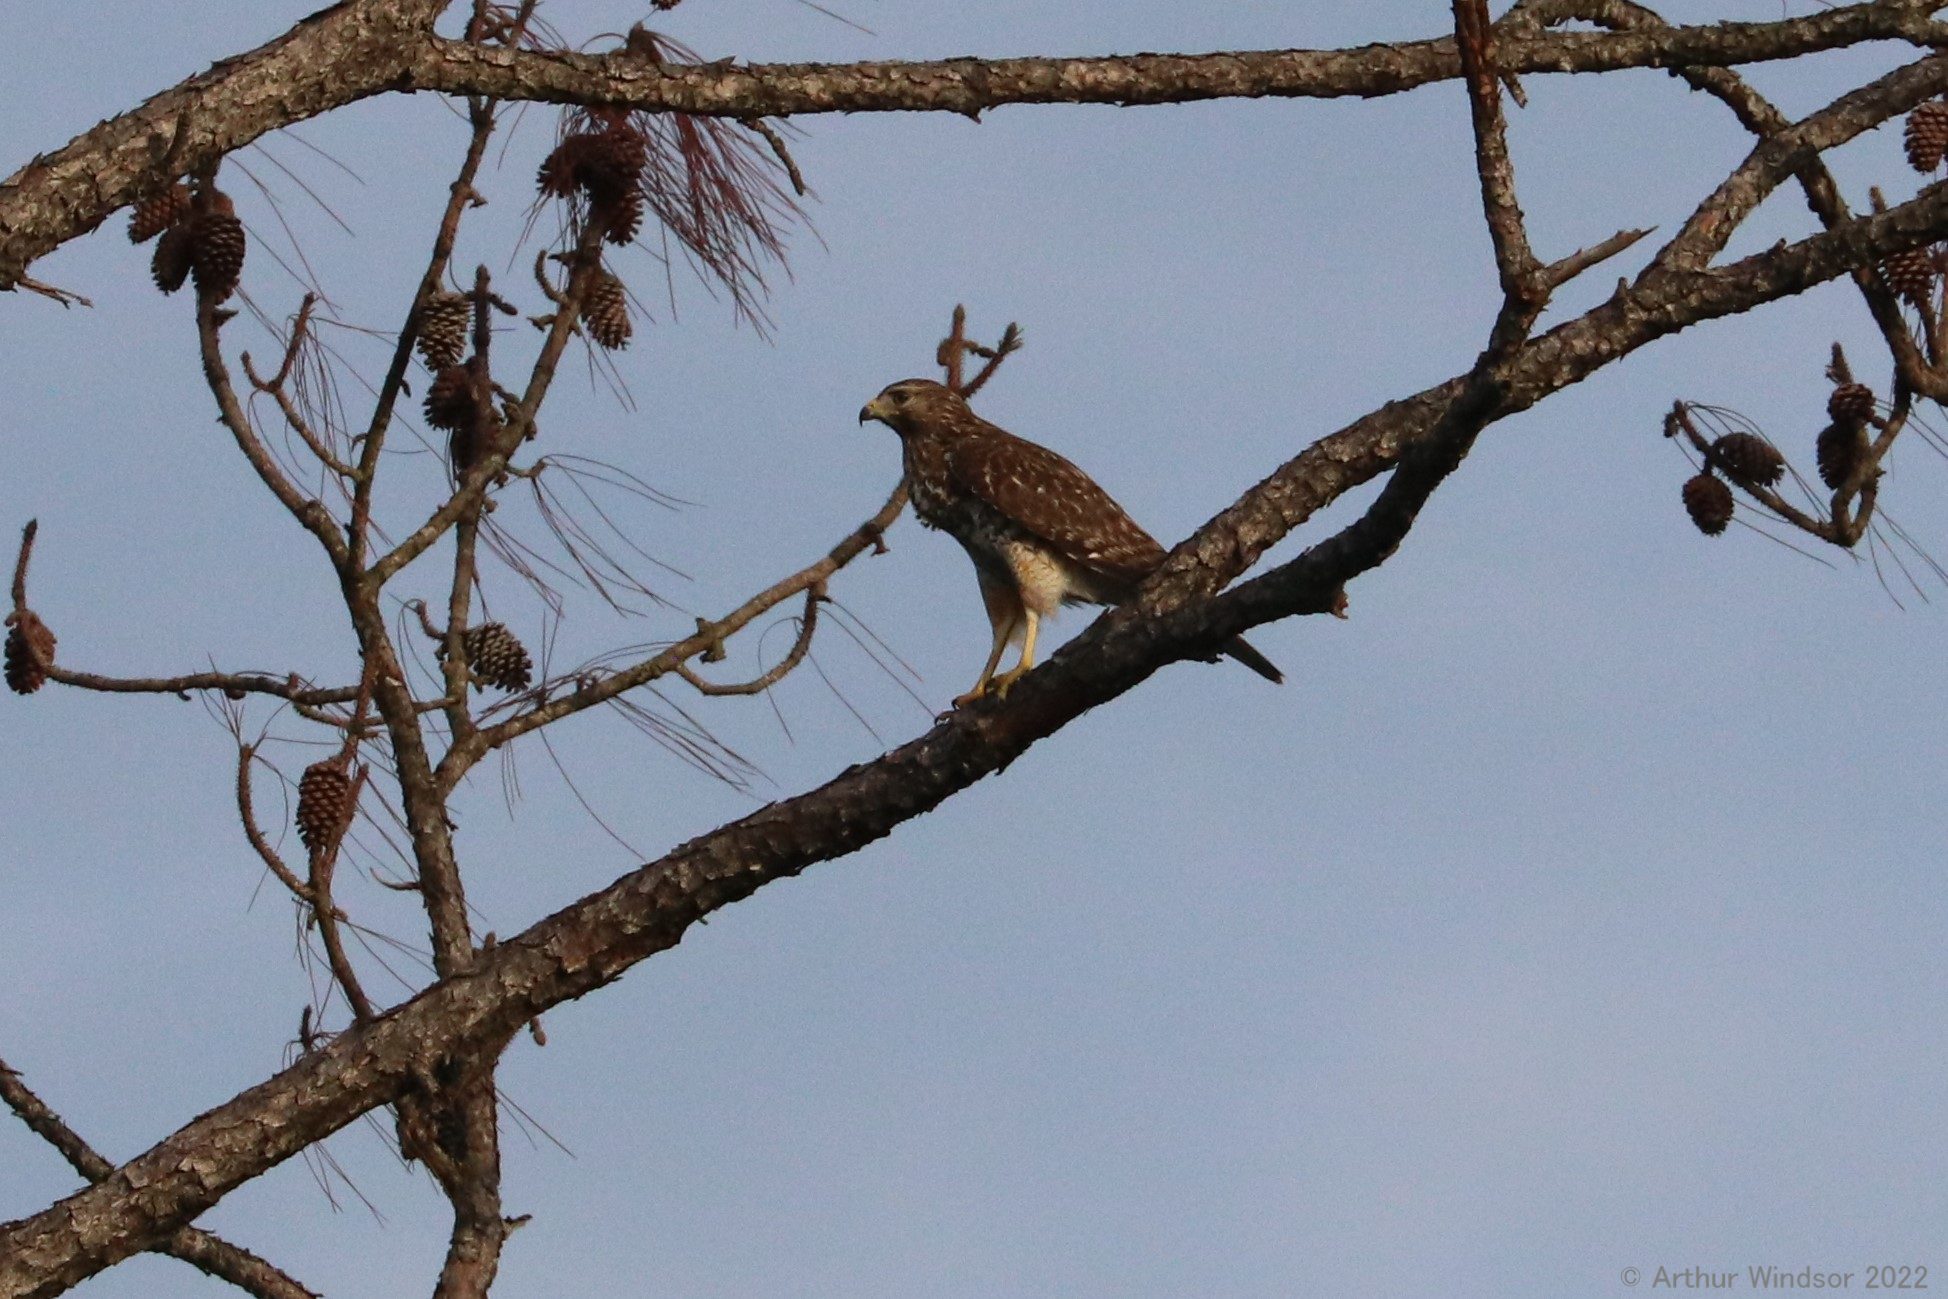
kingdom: Animalia
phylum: Chordata
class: Aves
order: Accipitriformes
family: Accipitridae
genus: Buteo
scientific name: Buteo lineatus
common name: Red-shouldered hawk
